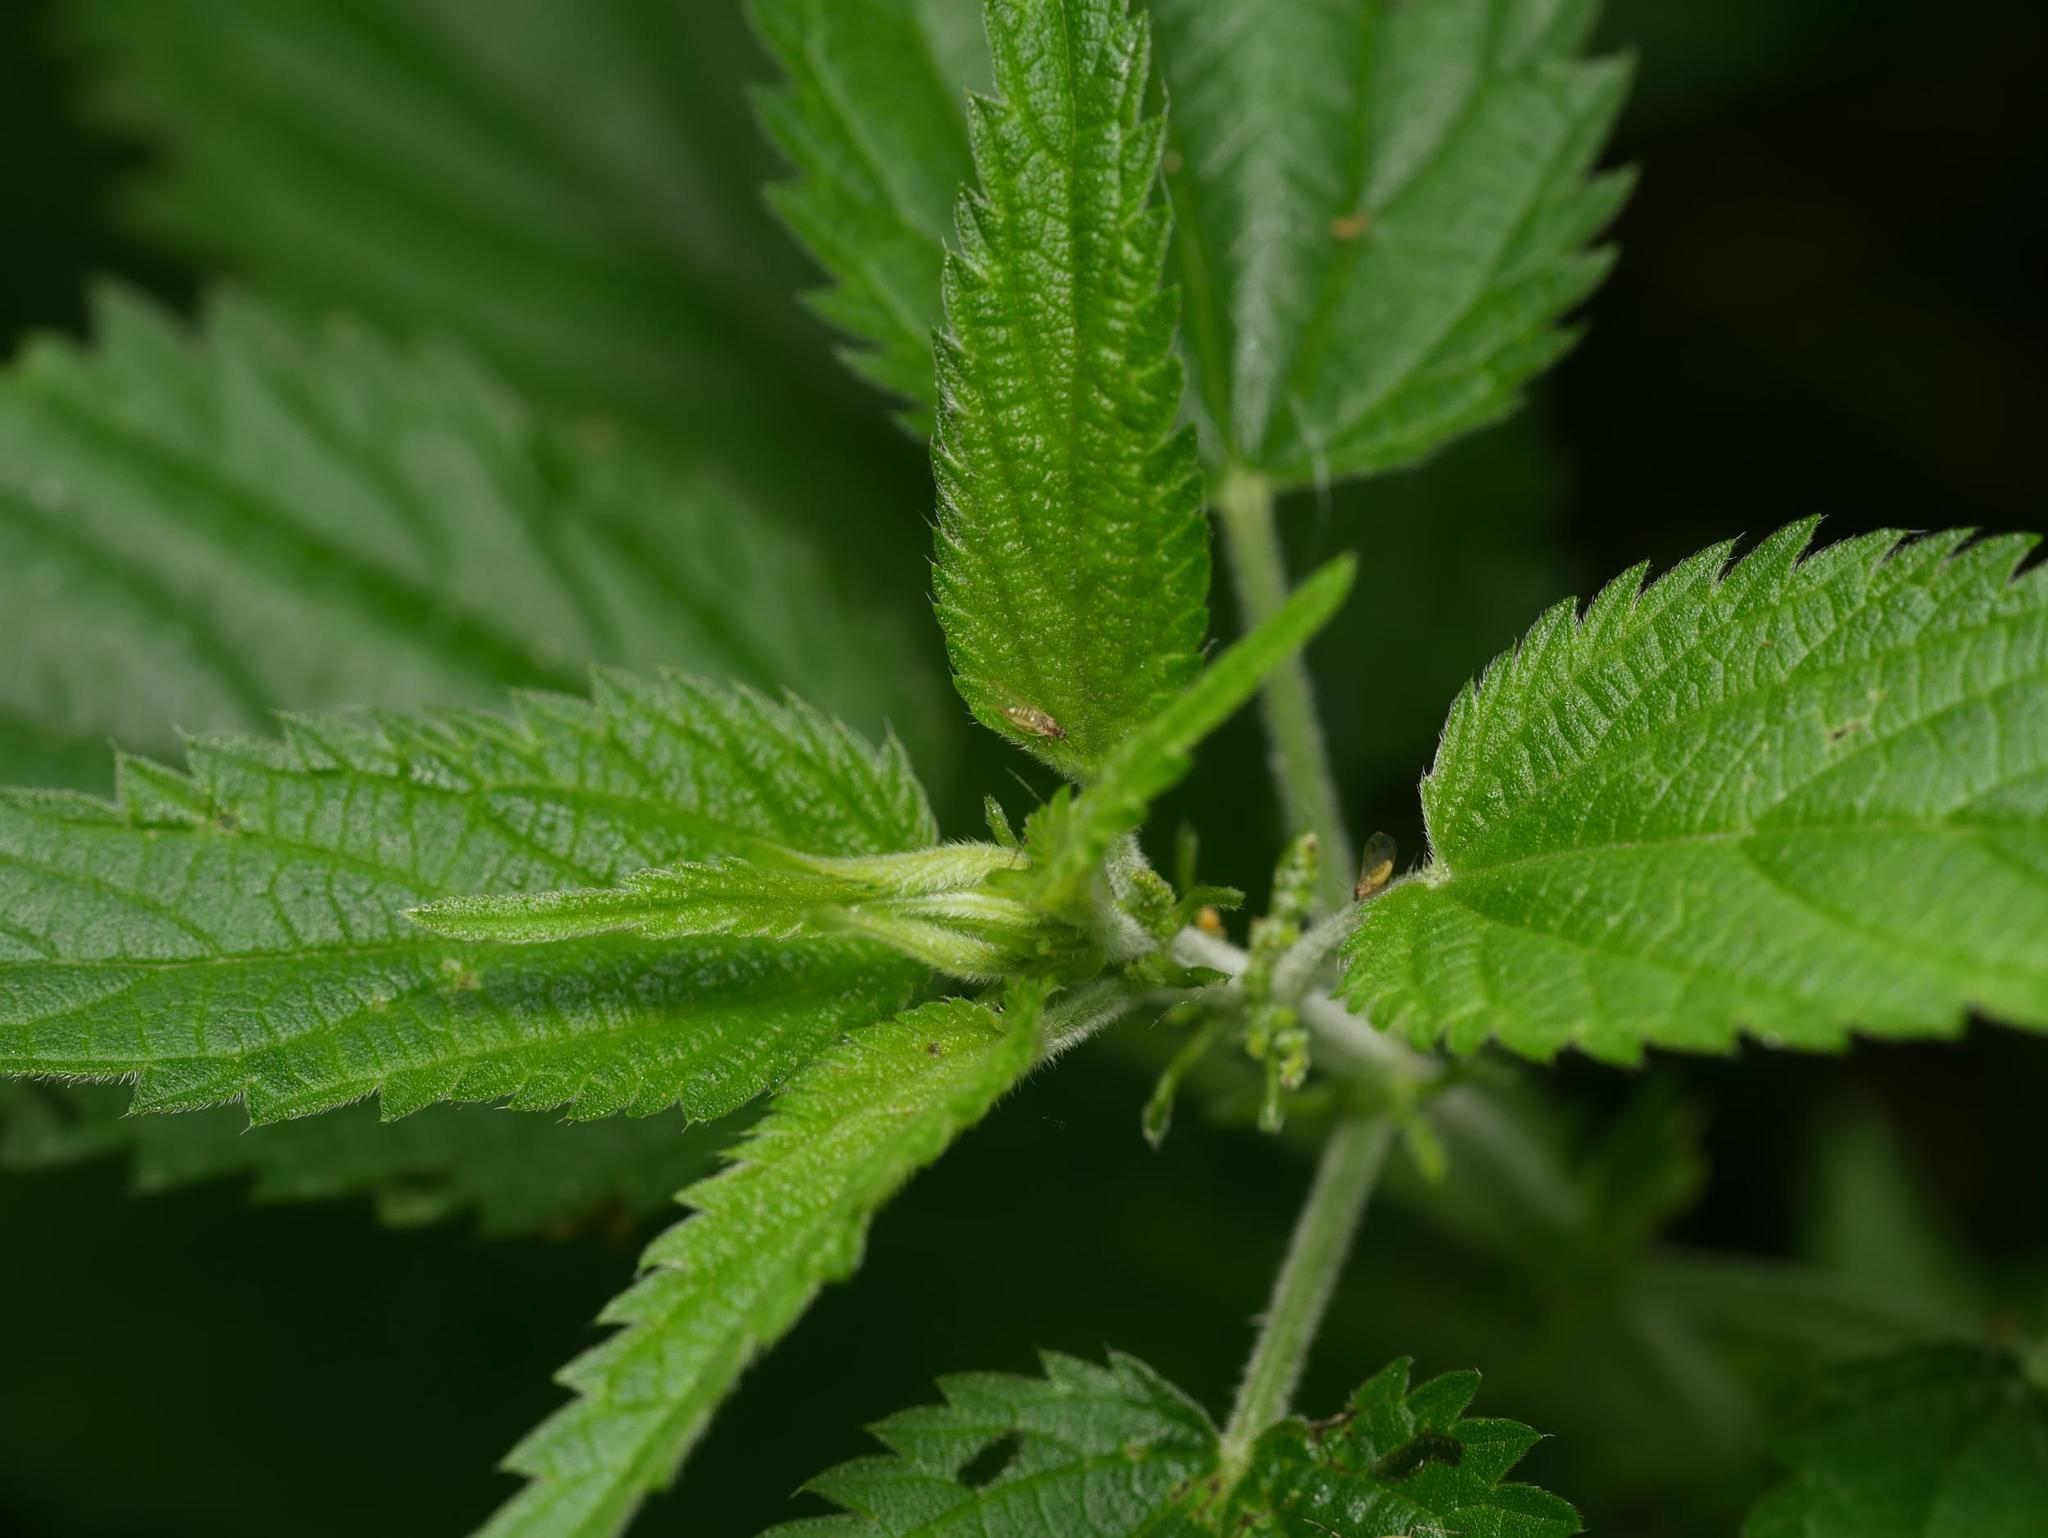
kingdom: Plantae
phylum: Tracheophyta
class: Magnoliopsida
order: Rosales
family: Urticaceae
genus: Urtica
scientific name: Urtica dioica
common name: Common nettle
